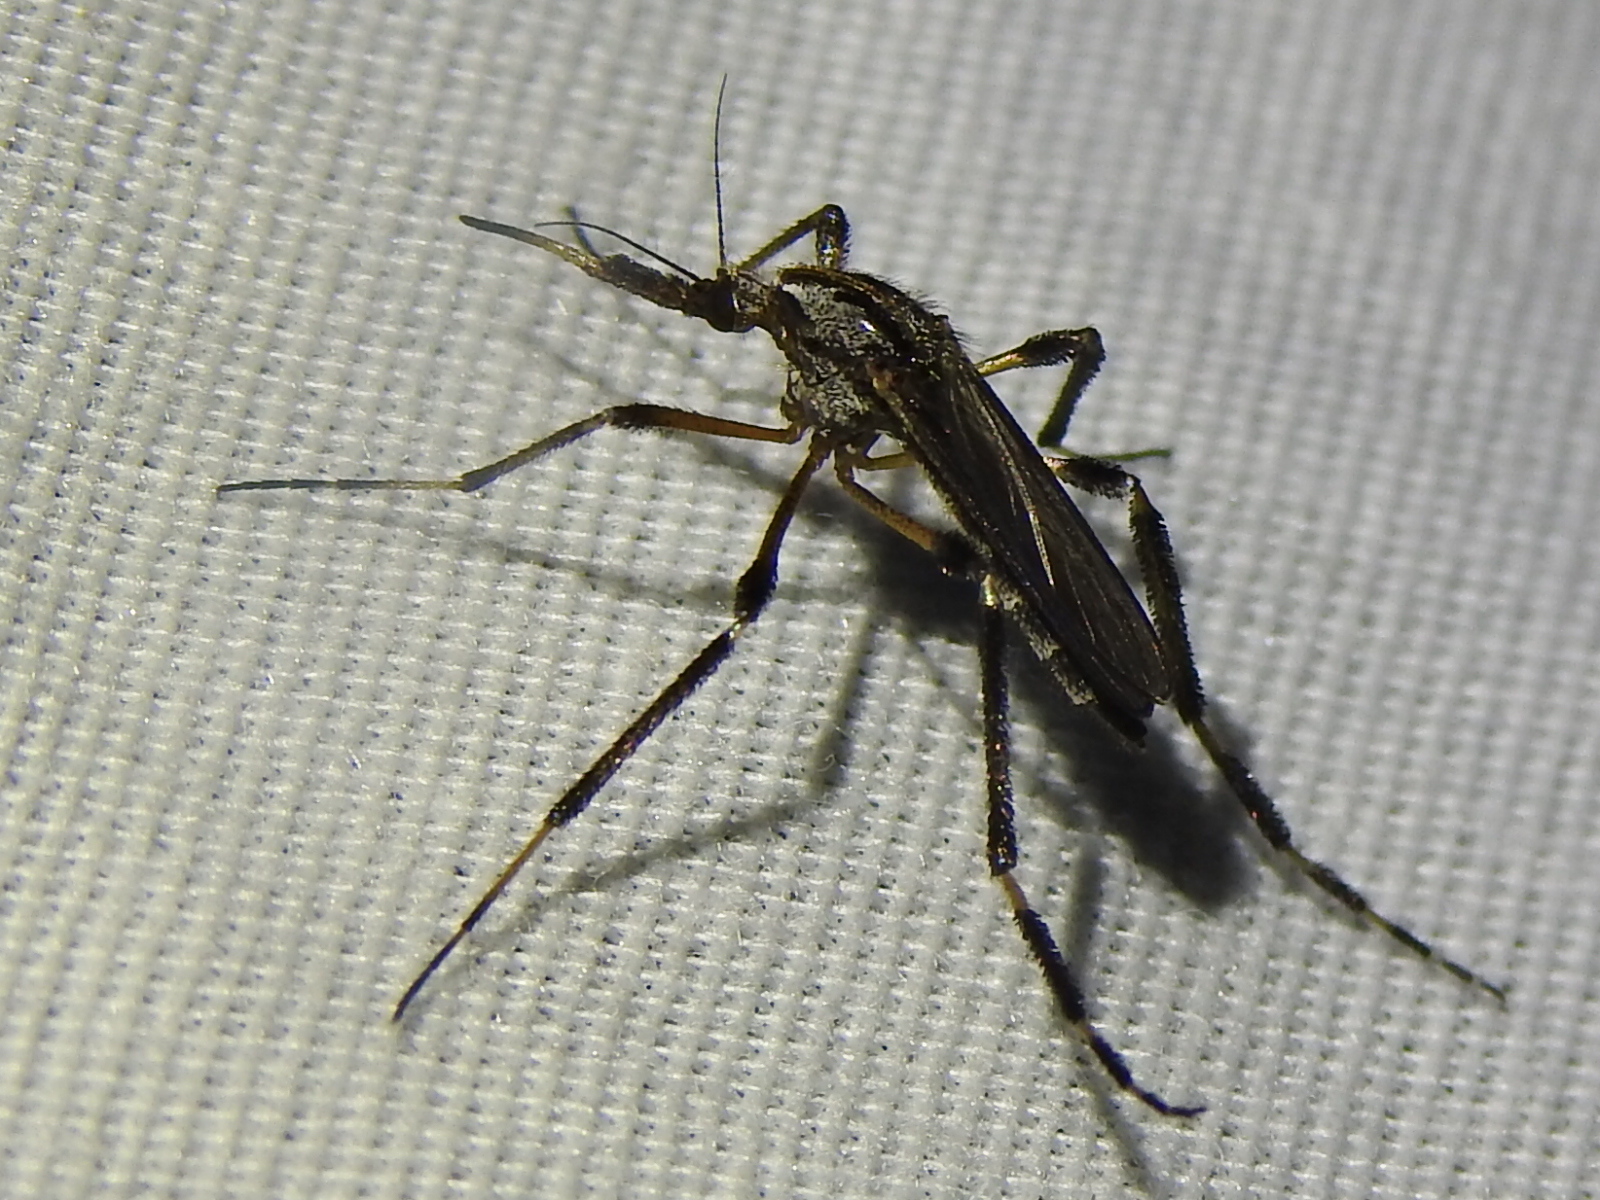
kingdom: Animalia
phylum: Arthropoda
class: Insecta
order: Diptera
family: Culicidae
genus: Psorophora
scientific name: Psorophora ciliata
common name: Gallinipper
